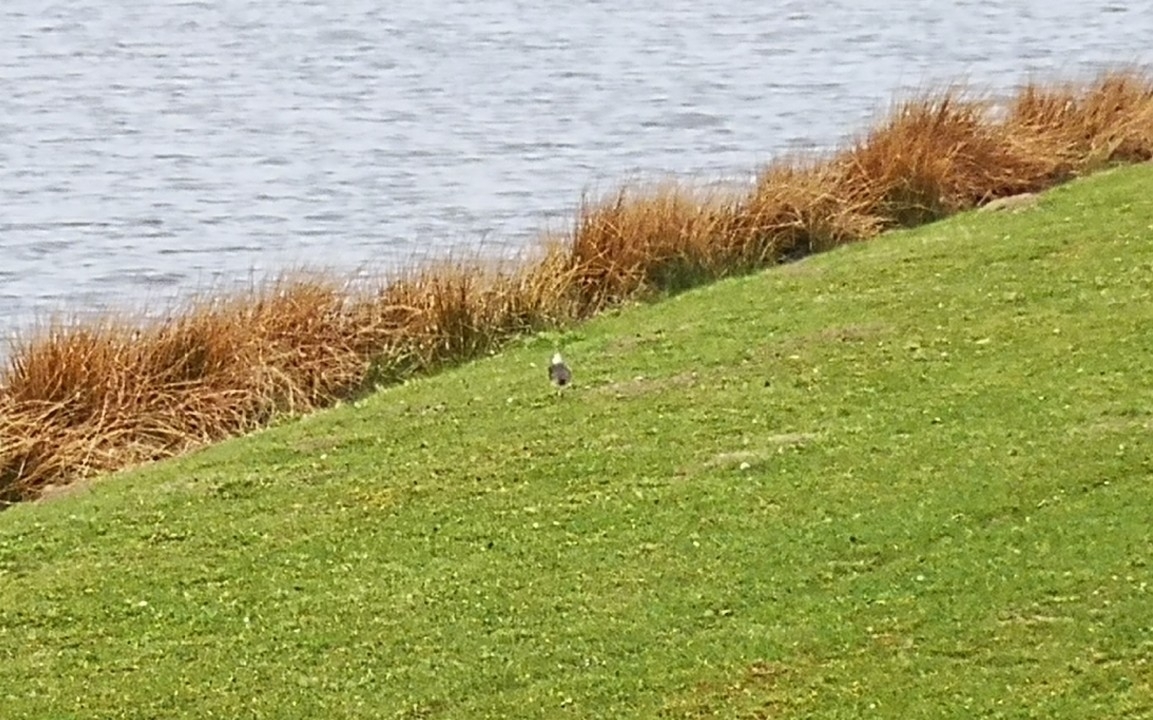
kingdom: Animalia
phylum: Chordata
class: Aves
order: Charadriiformes
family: Charadriidae
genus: Vanellus
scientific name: Vanellus vanellus
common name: Northern lapwing
